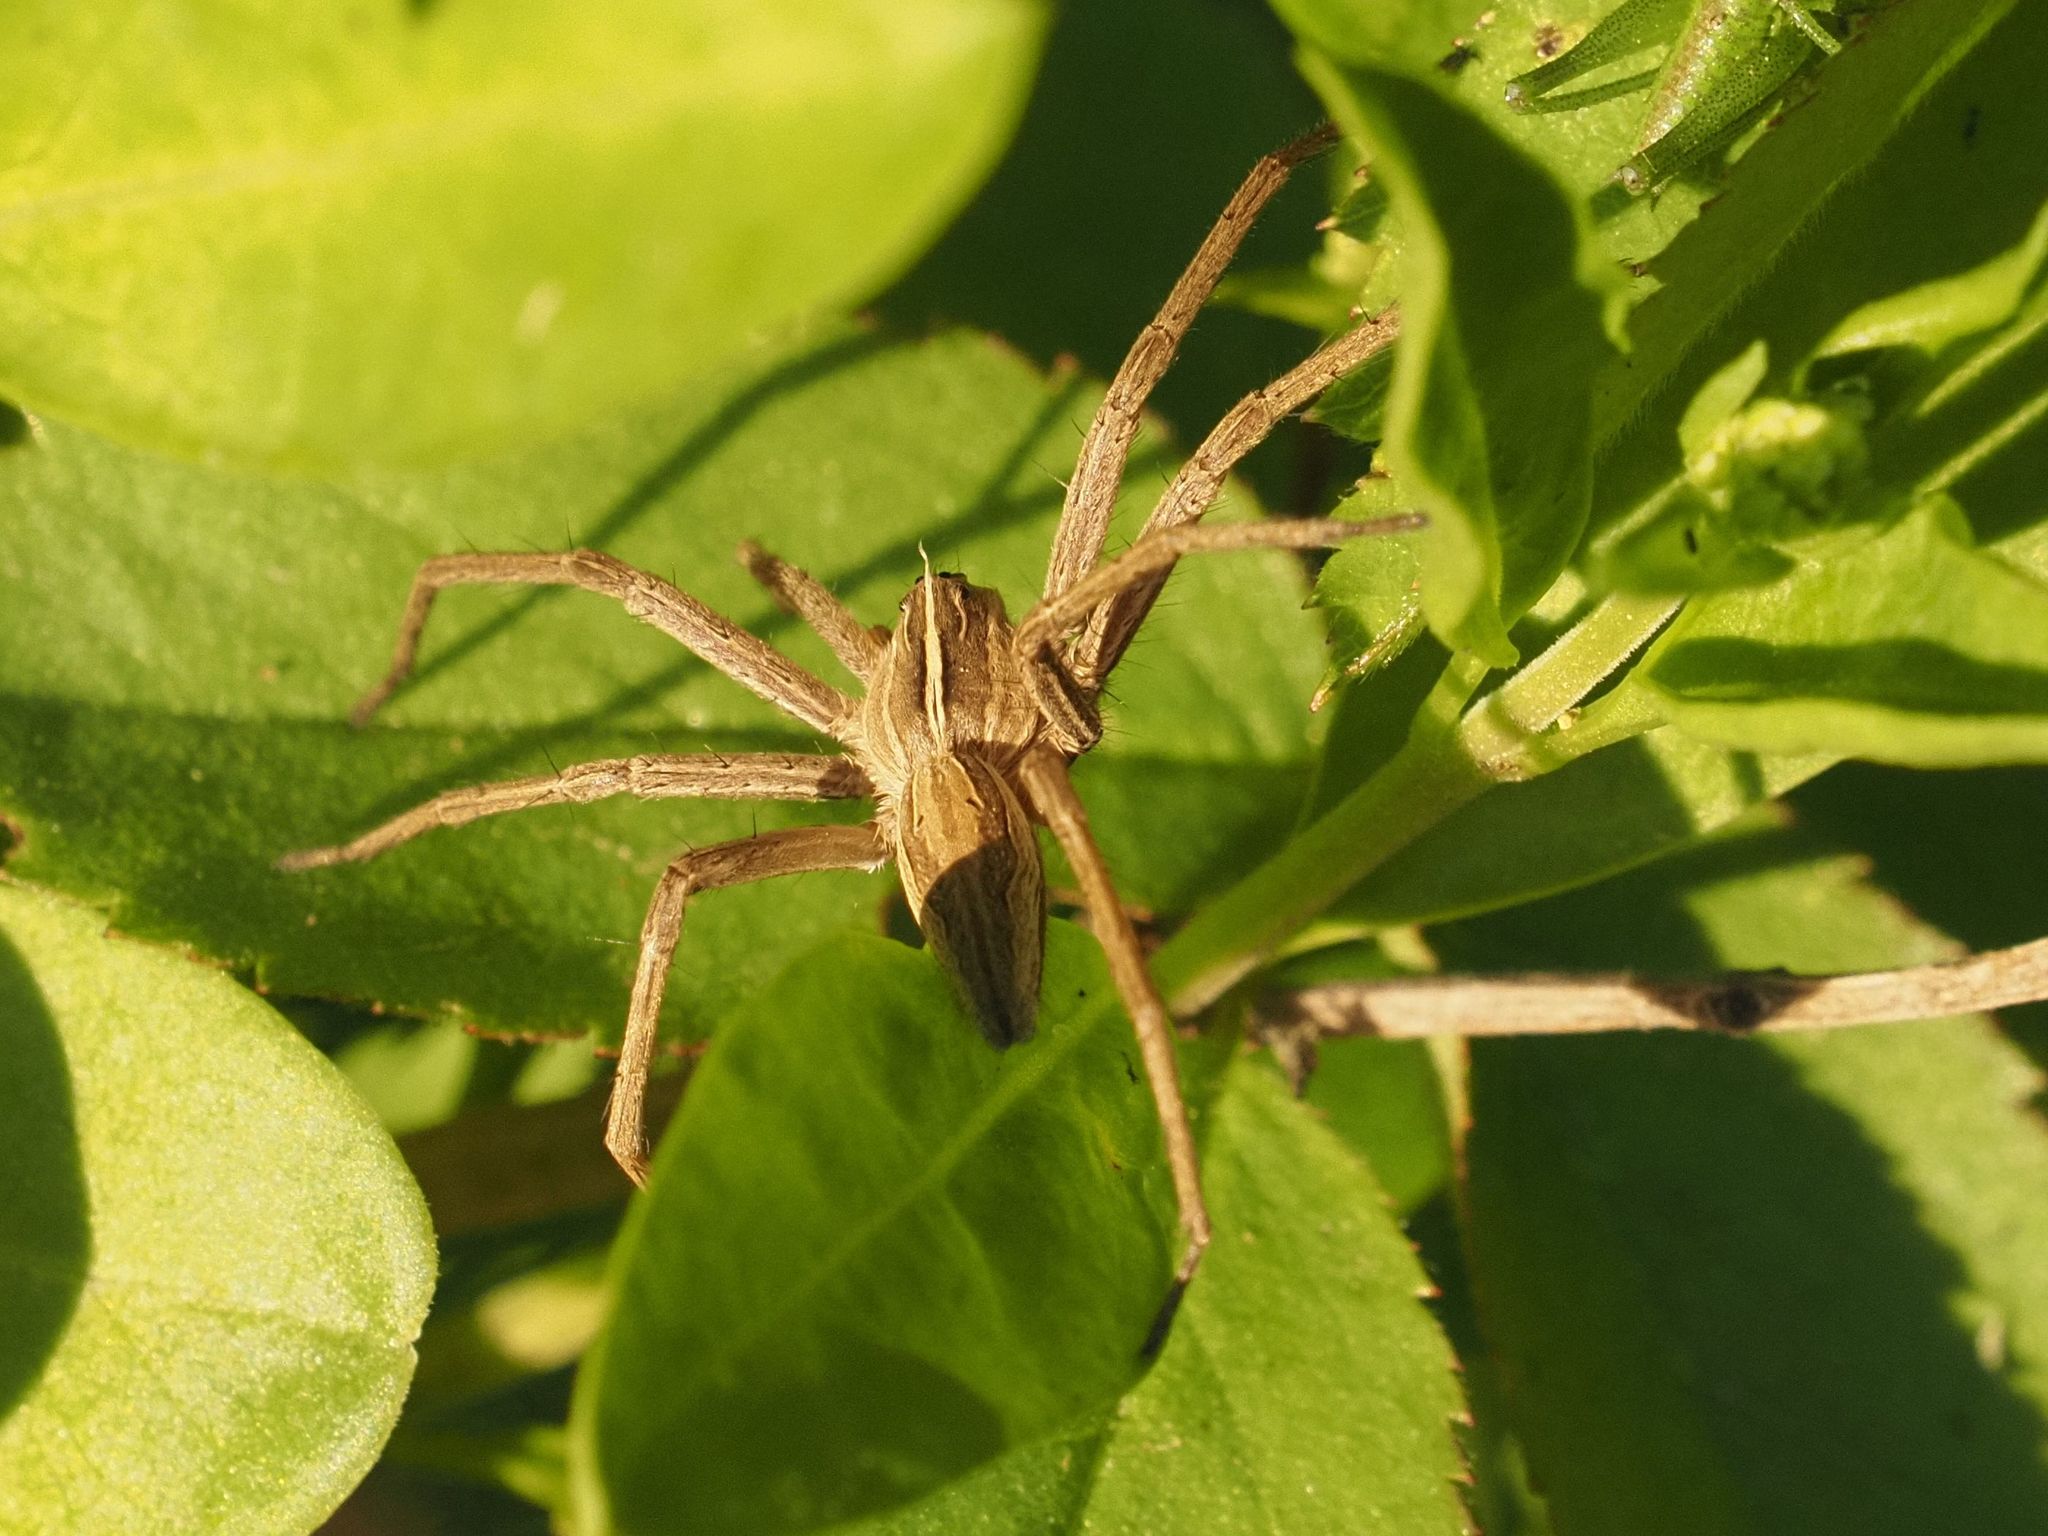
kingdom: Animalia
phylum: Arthropoda
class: Arachnida
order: Araneae
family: Pisauridae
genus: Pisaura
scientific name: Pisaura mirabilis
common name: Tent spider
